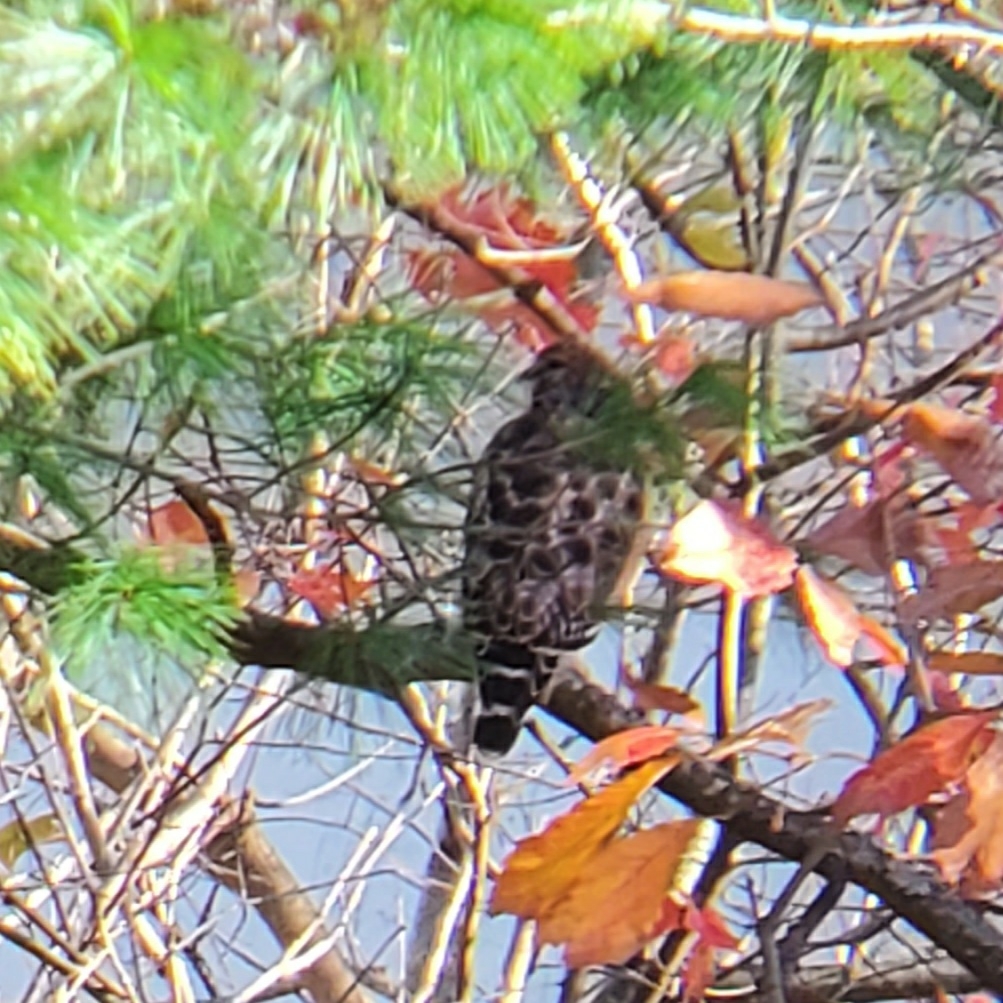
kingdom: Animalia
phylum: Chordata
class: Aves
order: Accipitriformes
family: Accipitridae
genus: Buteo
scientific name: Buteo lineatus
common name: Red-shouldered hawk
